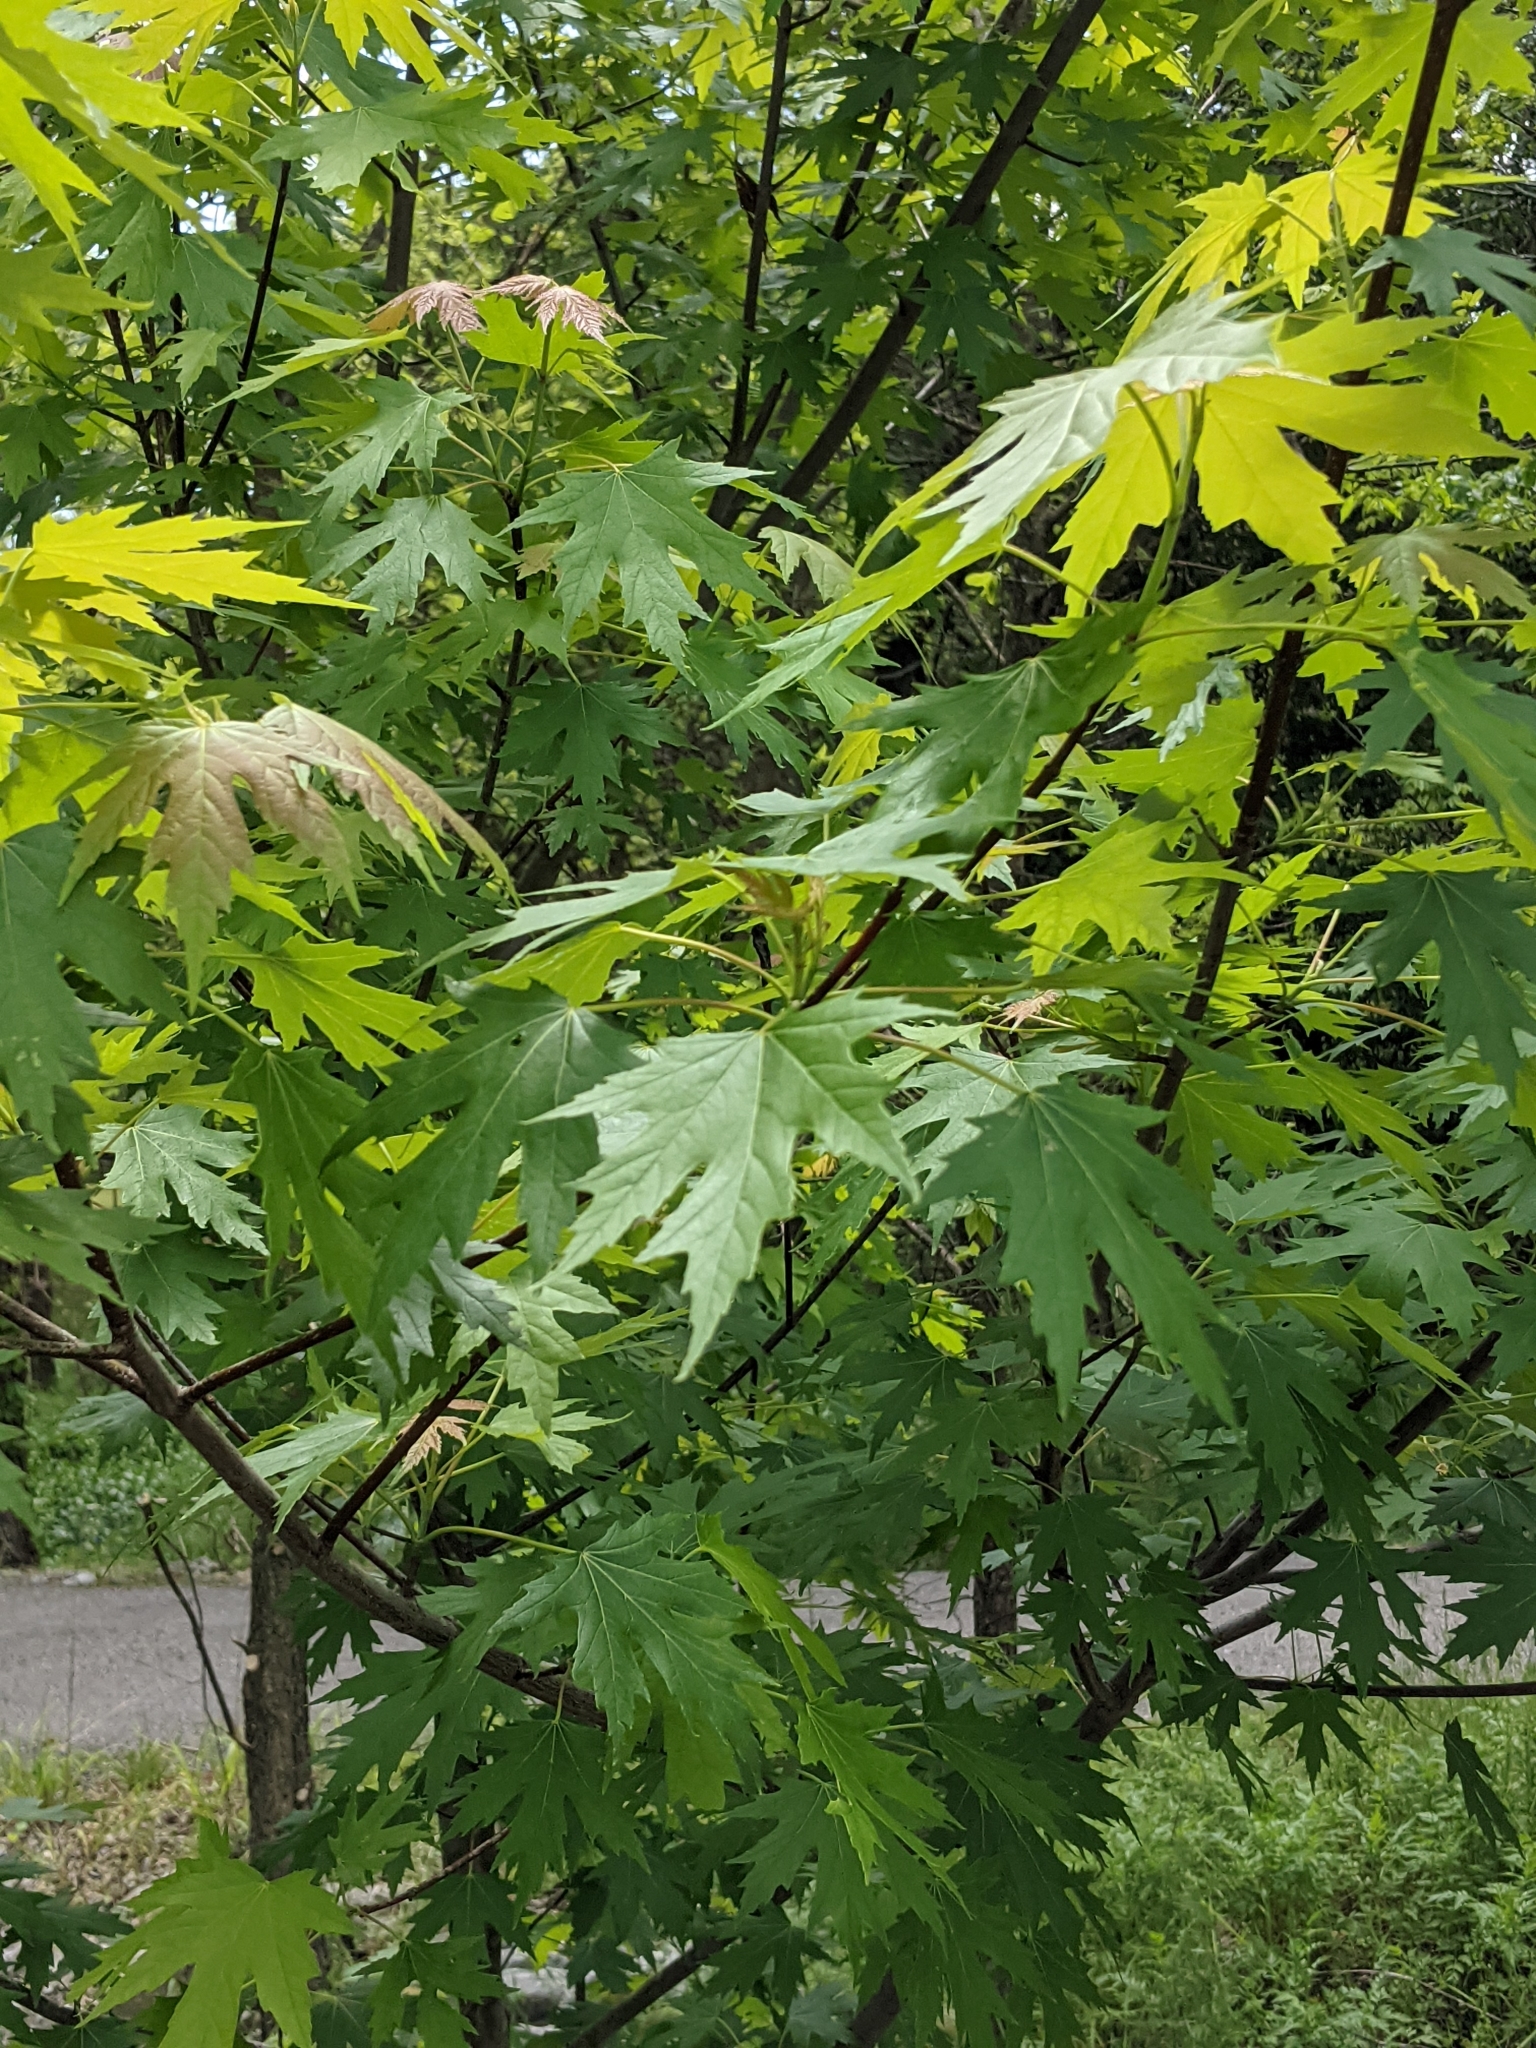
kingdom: Plantae
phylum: Tracheophyta
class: Magnoliopsida
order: Sapindales
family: Sapindaceae
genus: Acer
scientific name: Acer saccharinum
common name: Silver maple
